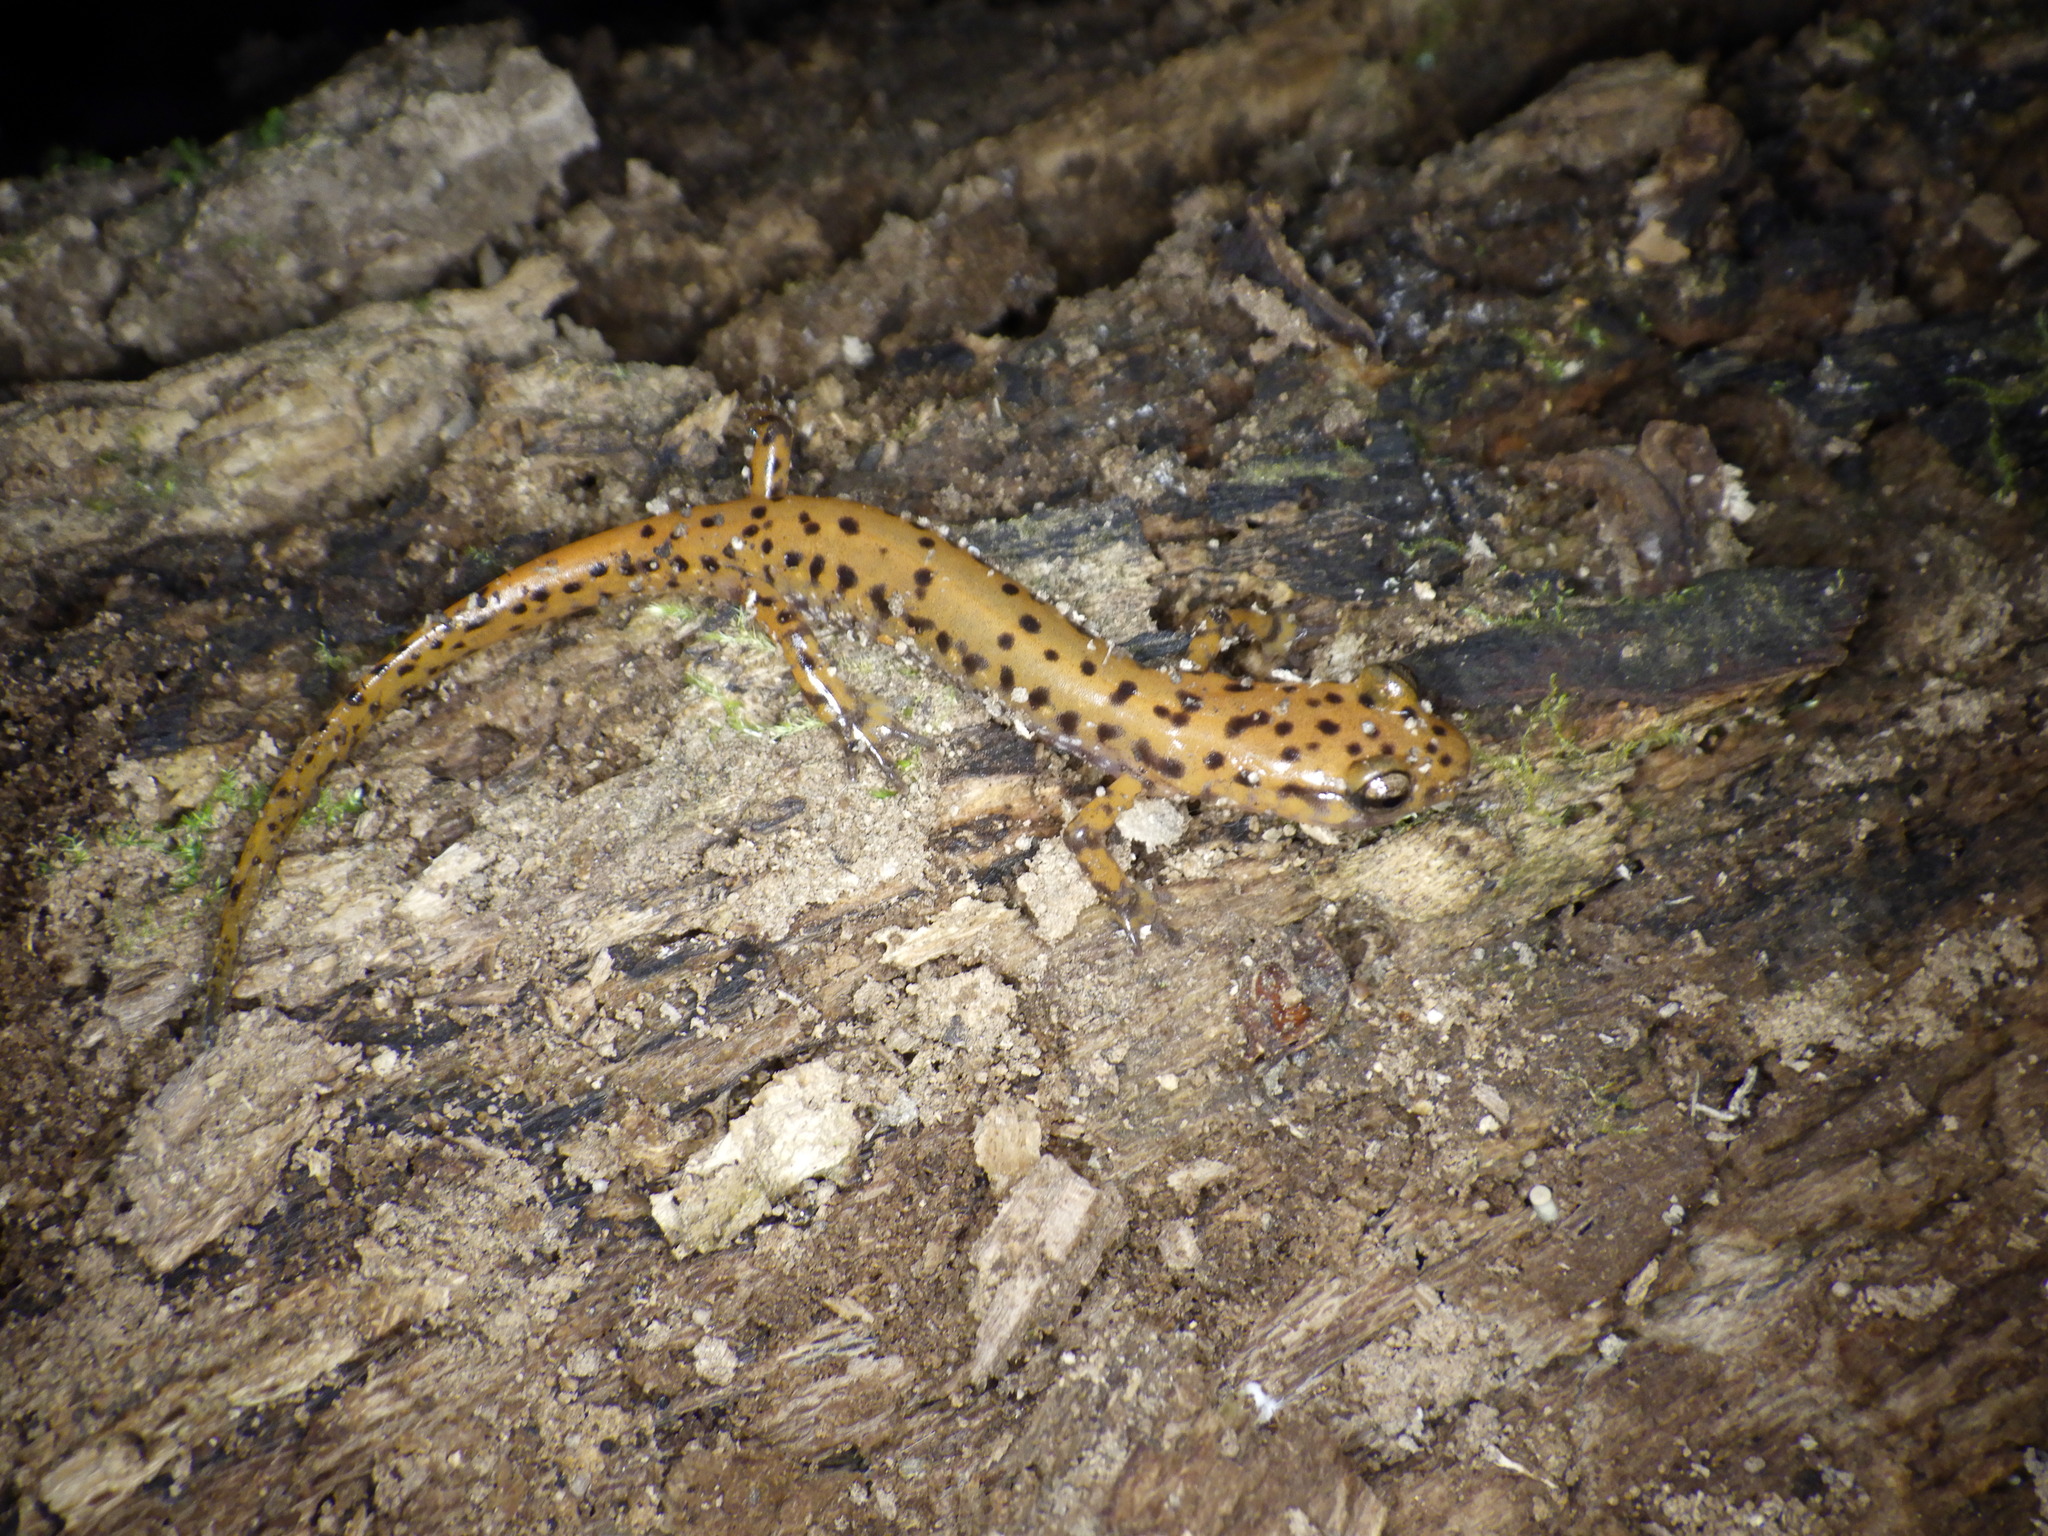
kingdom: Animalia
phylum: Chordata
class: Amphibia
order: Caudata
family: Plethodontidae
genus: Eurycea
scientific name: Eurycea lucifuga
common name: Cave salamander
